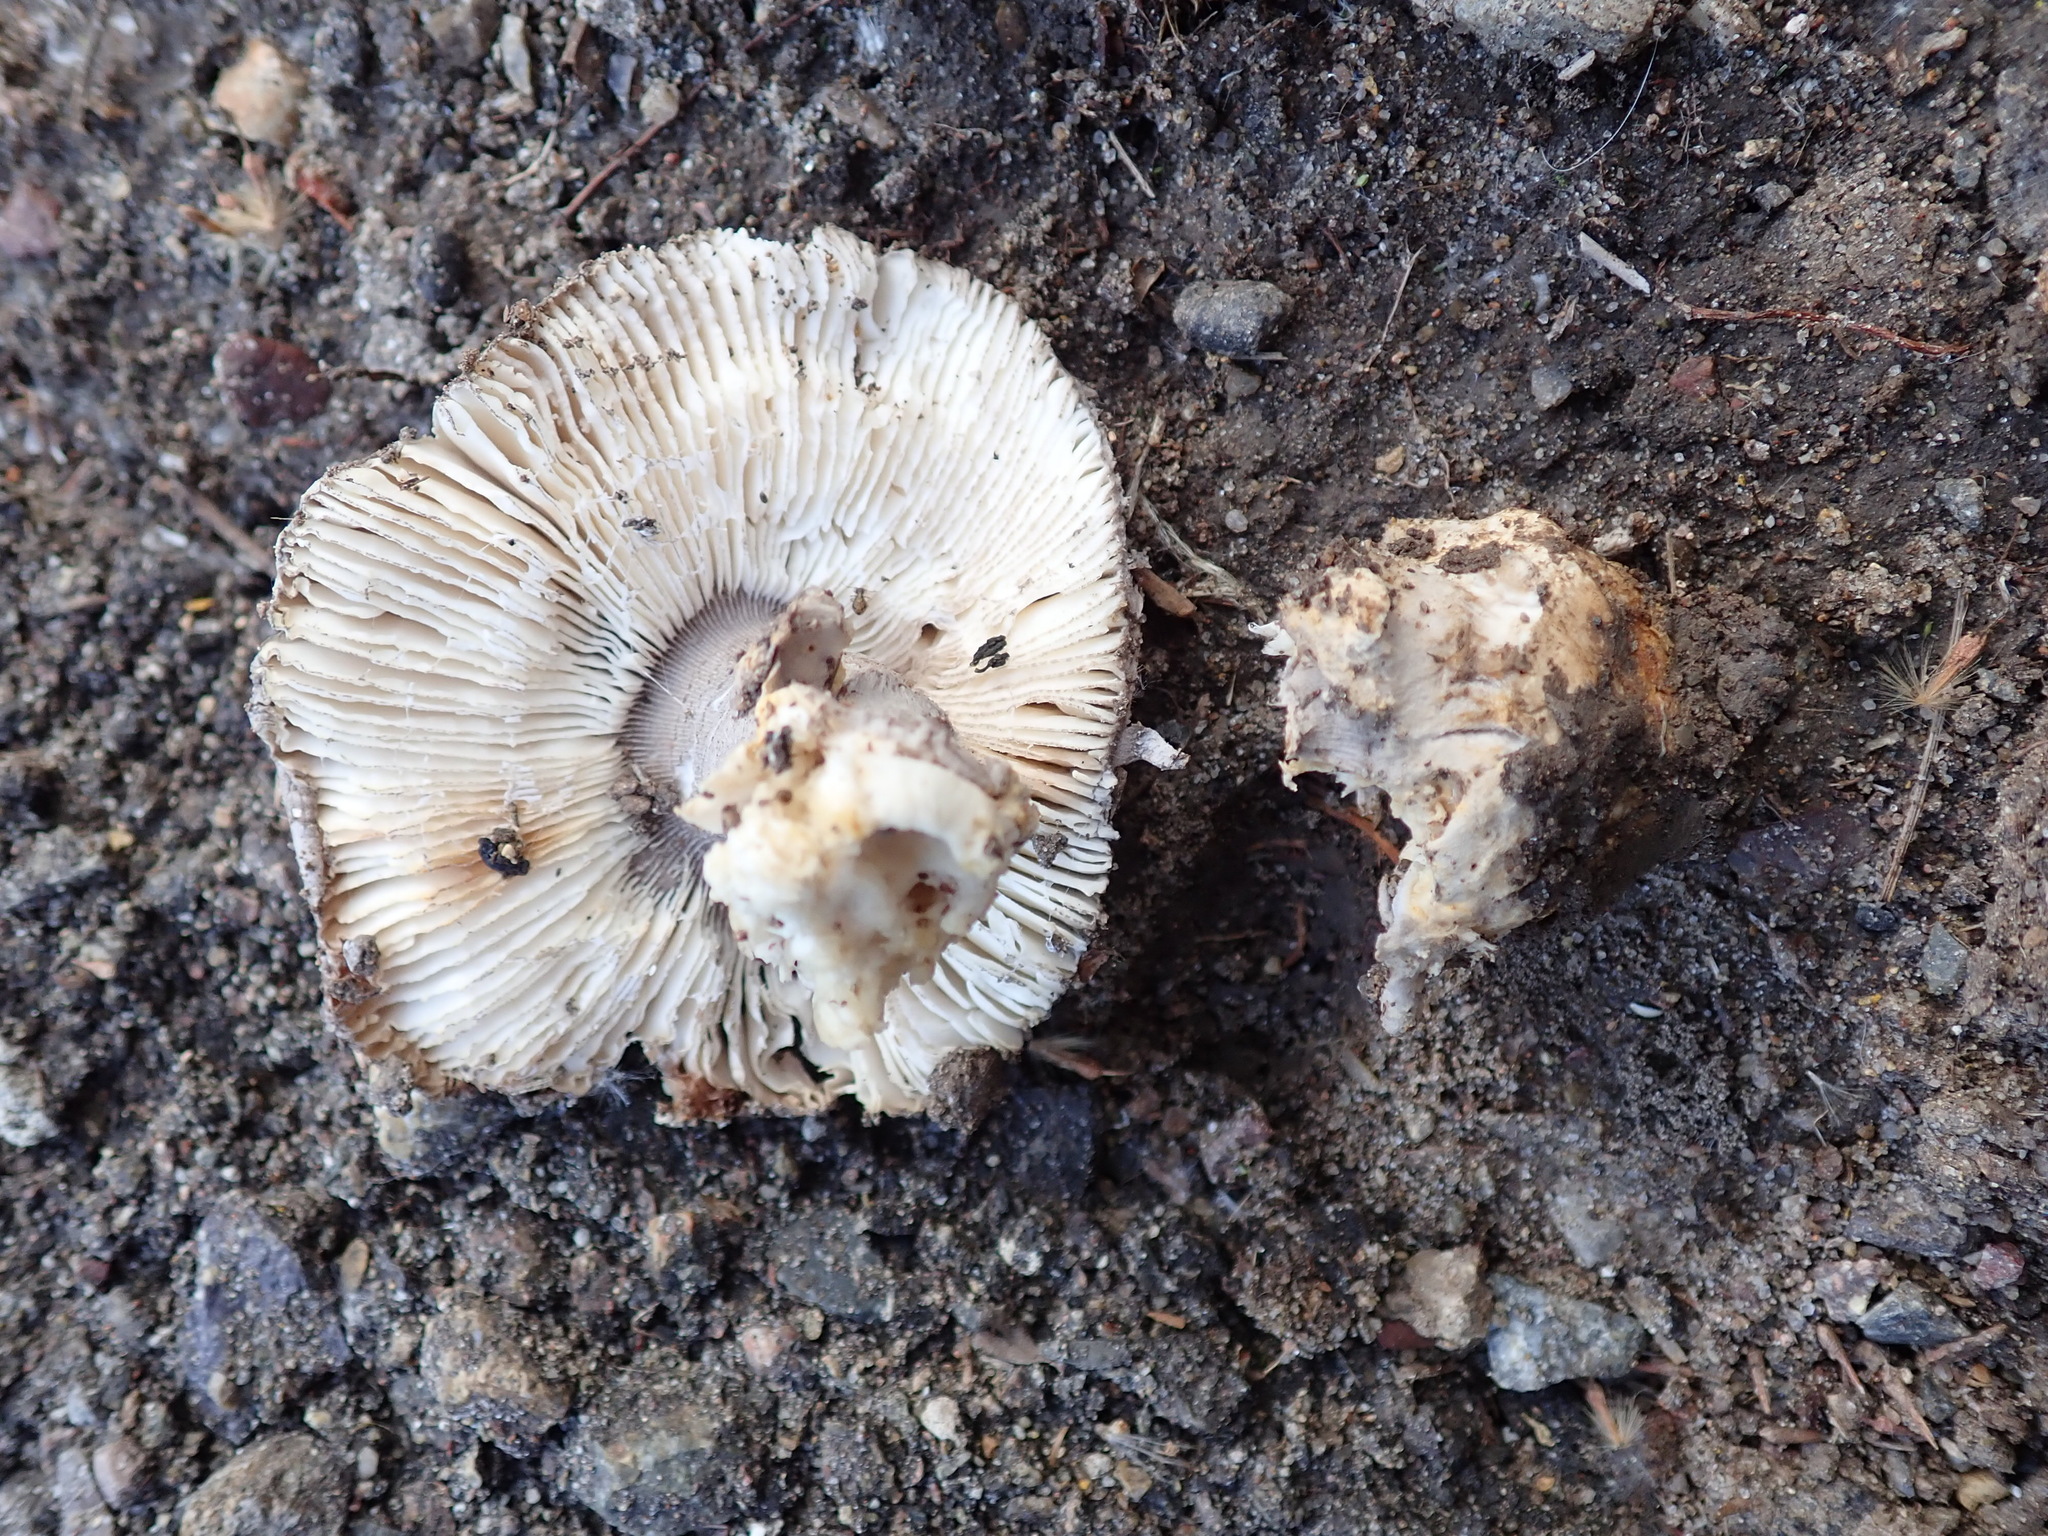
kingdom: Fungi
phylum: Basidiomycota
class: Agaricomycetes
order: Agaricales
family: Amanitaceae
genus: Amanita
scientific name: Amanita protecta
